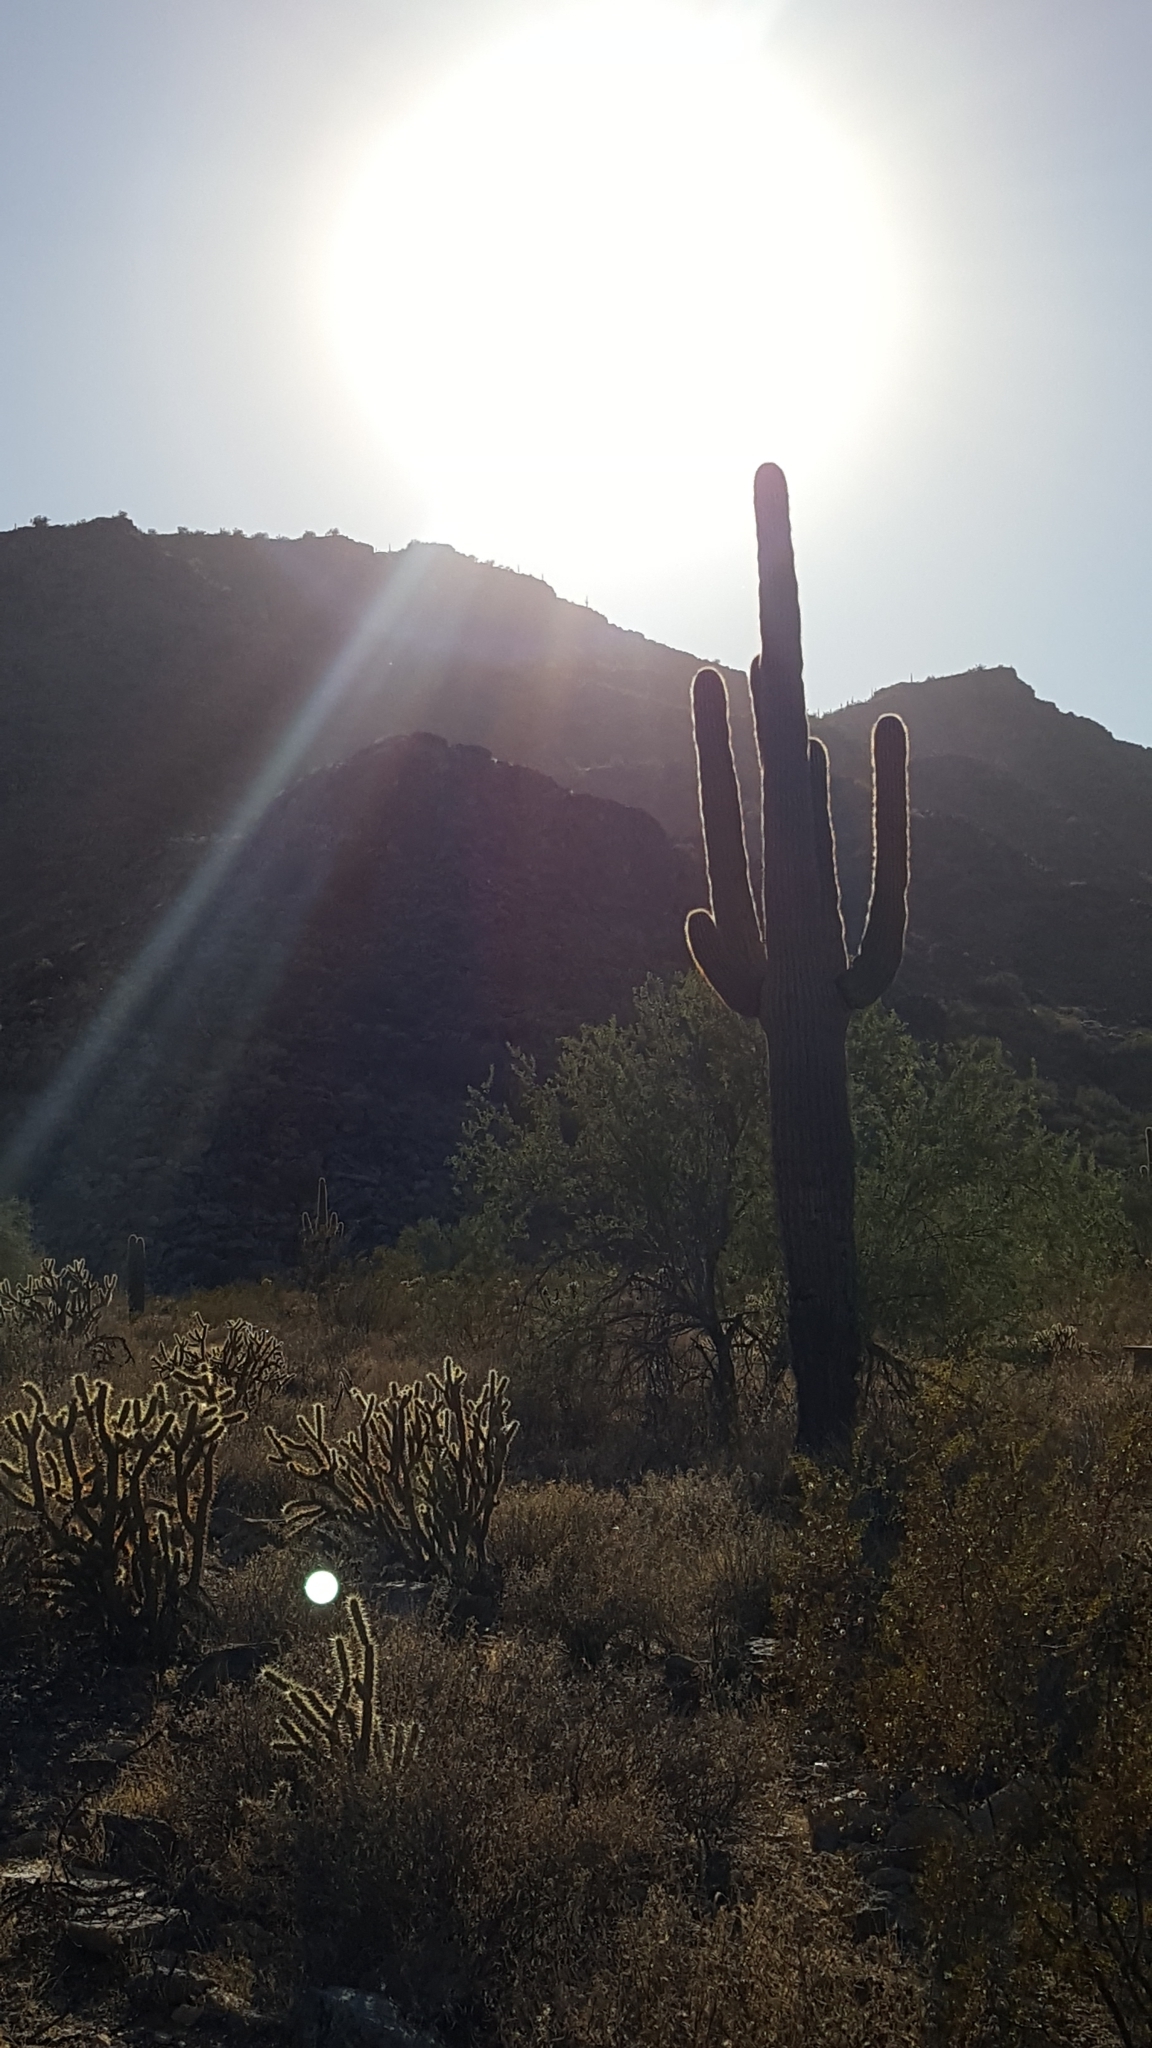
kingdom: Plantae
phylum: Tracheophyta
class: Magnoliopsida
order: Caryophyllales
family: Cactaceae
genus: Carnegiea
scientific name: Carnegiea gigantea
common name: Saguaro
